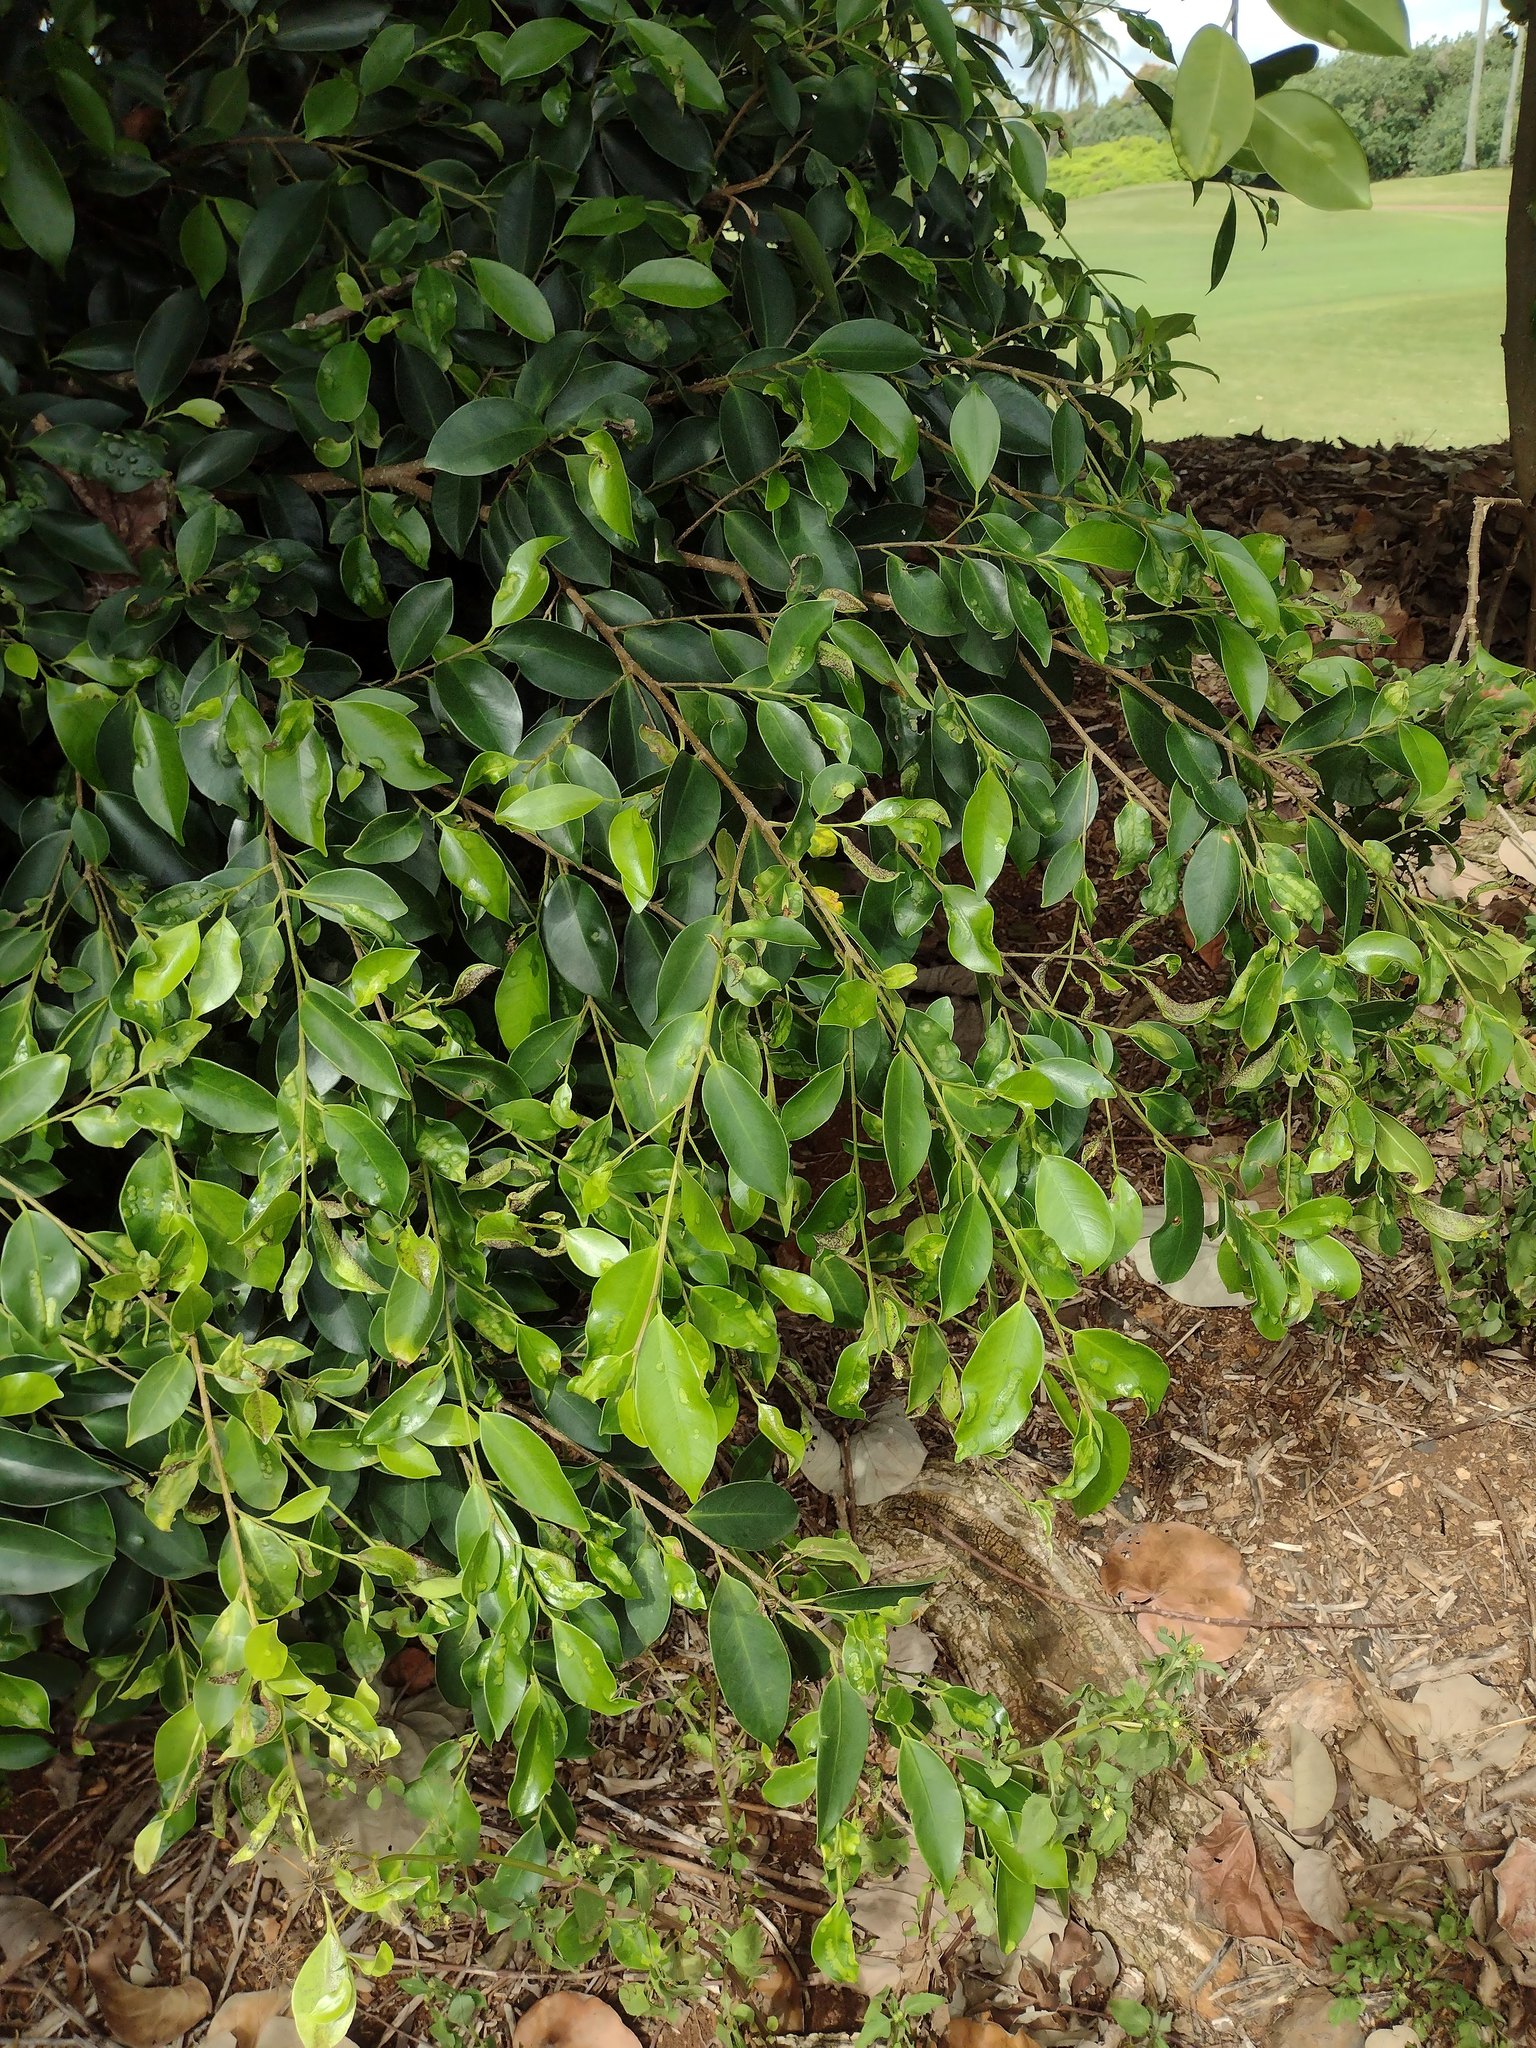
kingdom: Plantae
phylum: Tracheophyta
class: Magnoliopsida
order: Rosales
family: Moraceae
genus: Ficus
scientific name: Ficus microcarpa
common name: Chinese banyan
